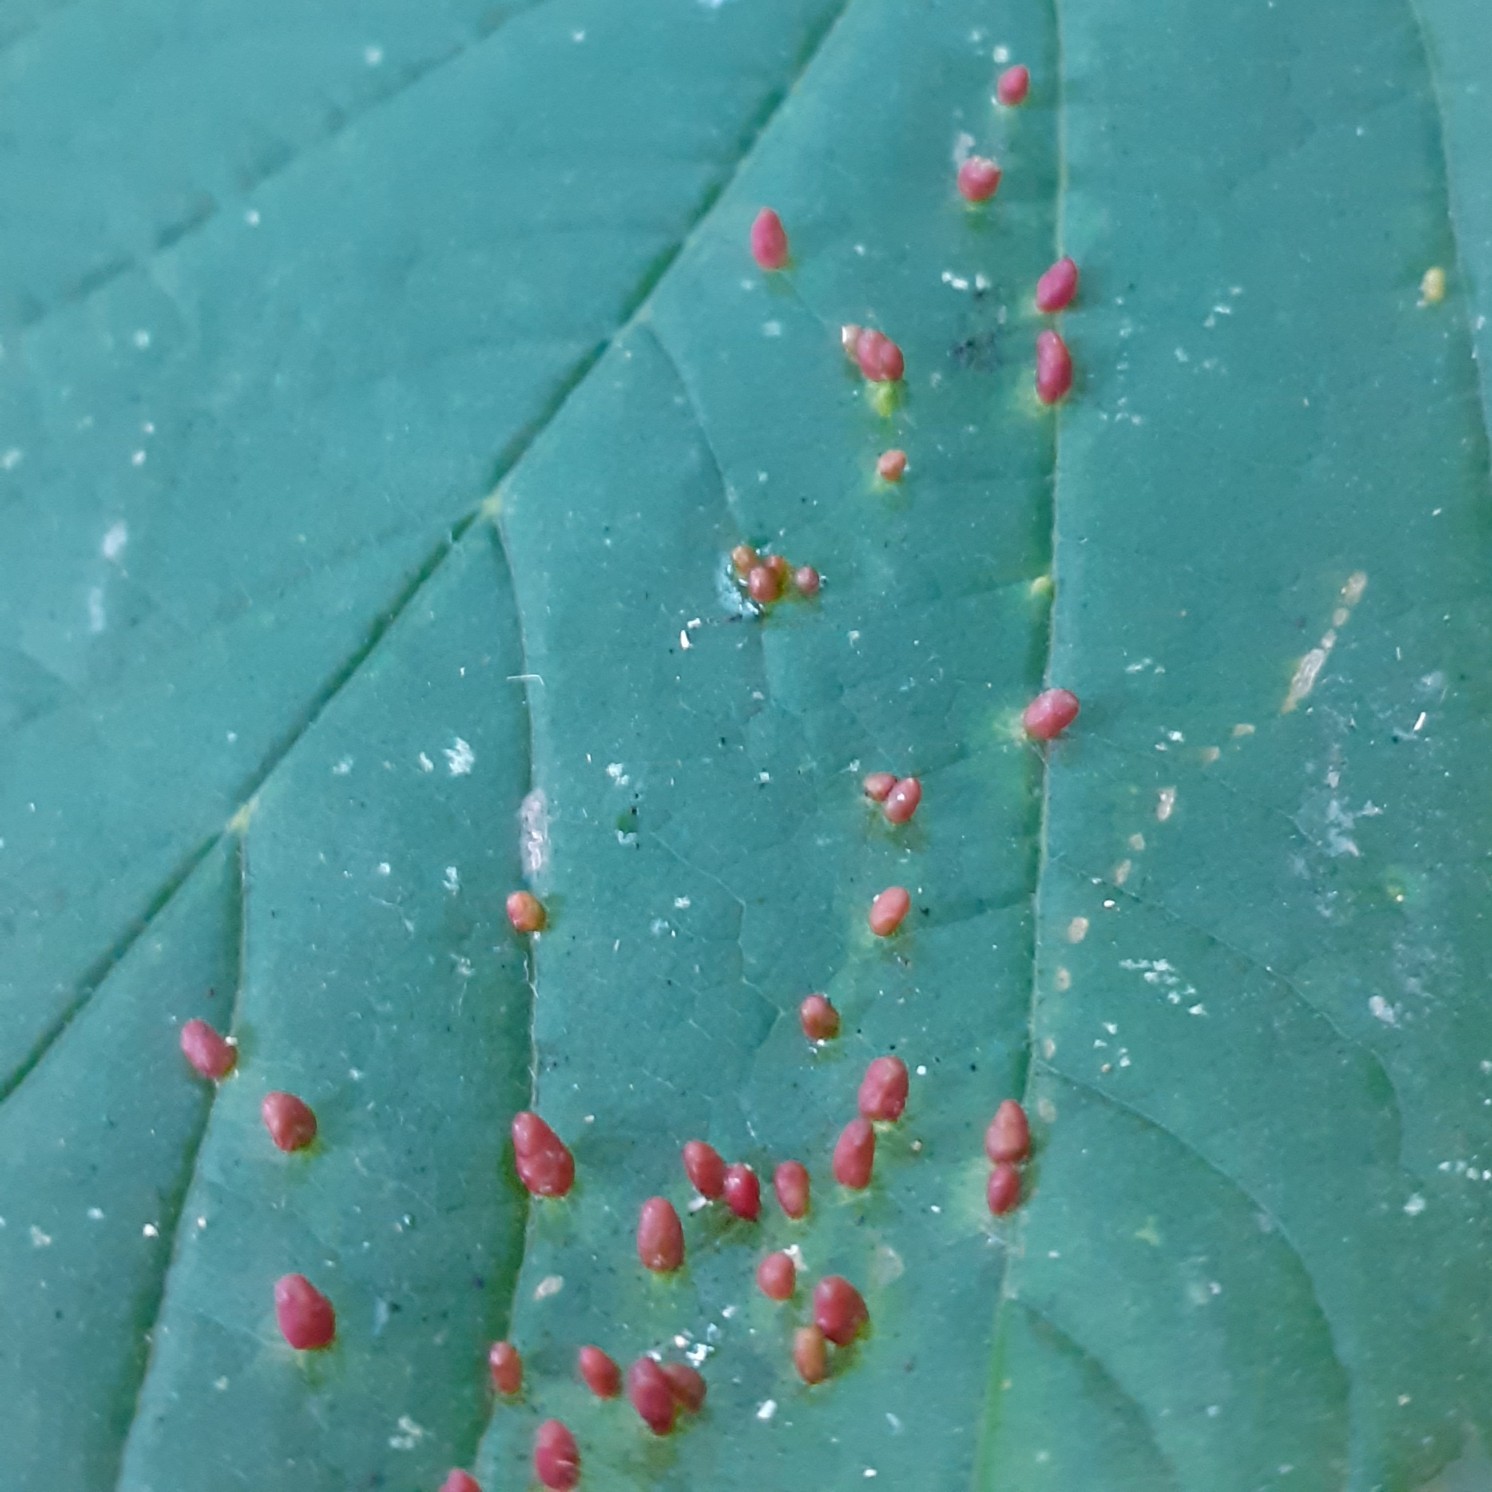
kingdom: Animalia
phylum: Arthropoda
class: Arachnida
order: Trombidiformes
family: Eriophyidae
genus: Aceria
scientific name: Aceria cephaloneus
